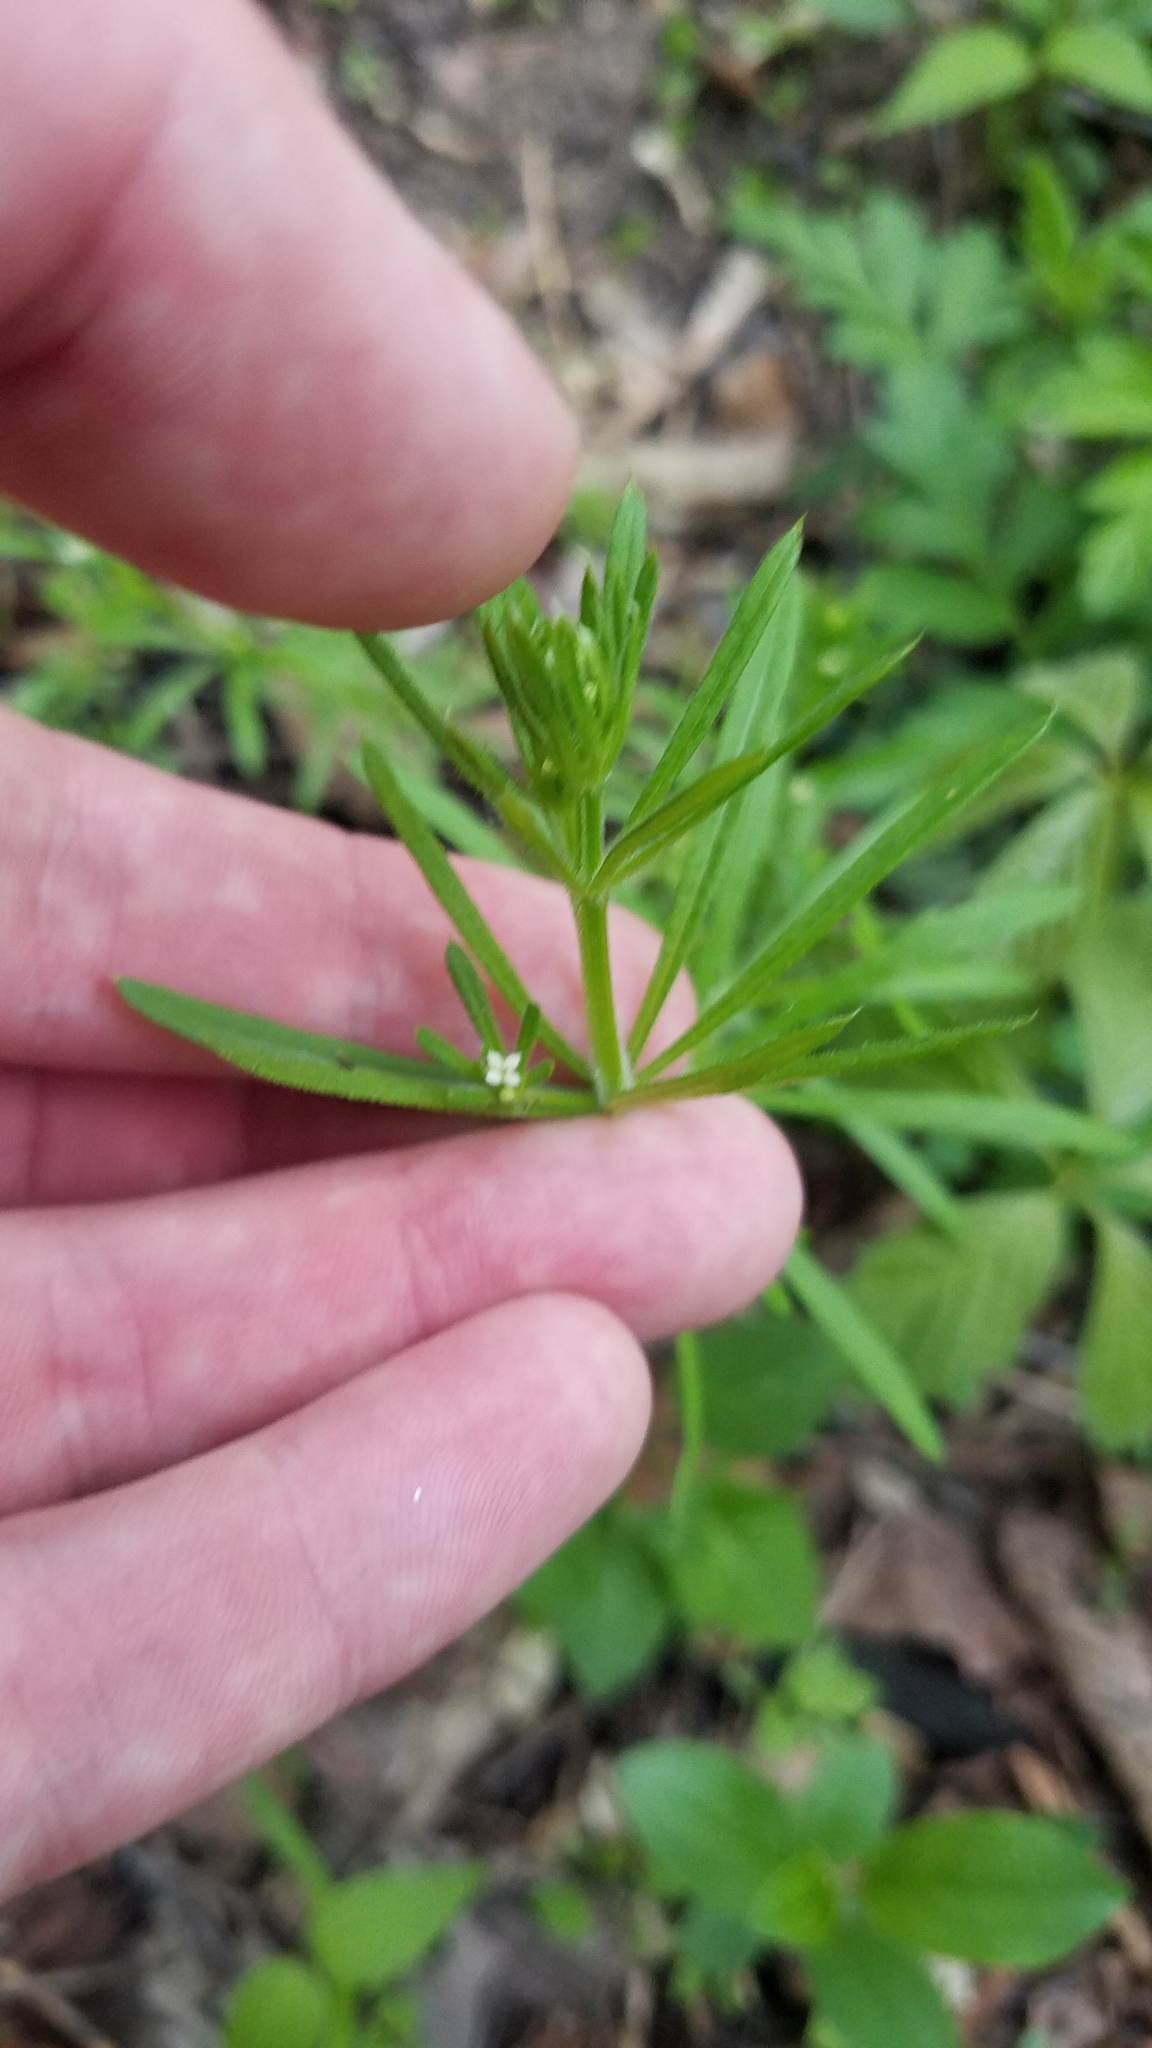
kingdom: Plantae
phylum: Tracheophyta
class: Magnoliopsida
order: Gentianales
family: Rubiaceae
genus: Galium
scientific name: Galium aparine
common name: Cleavers
